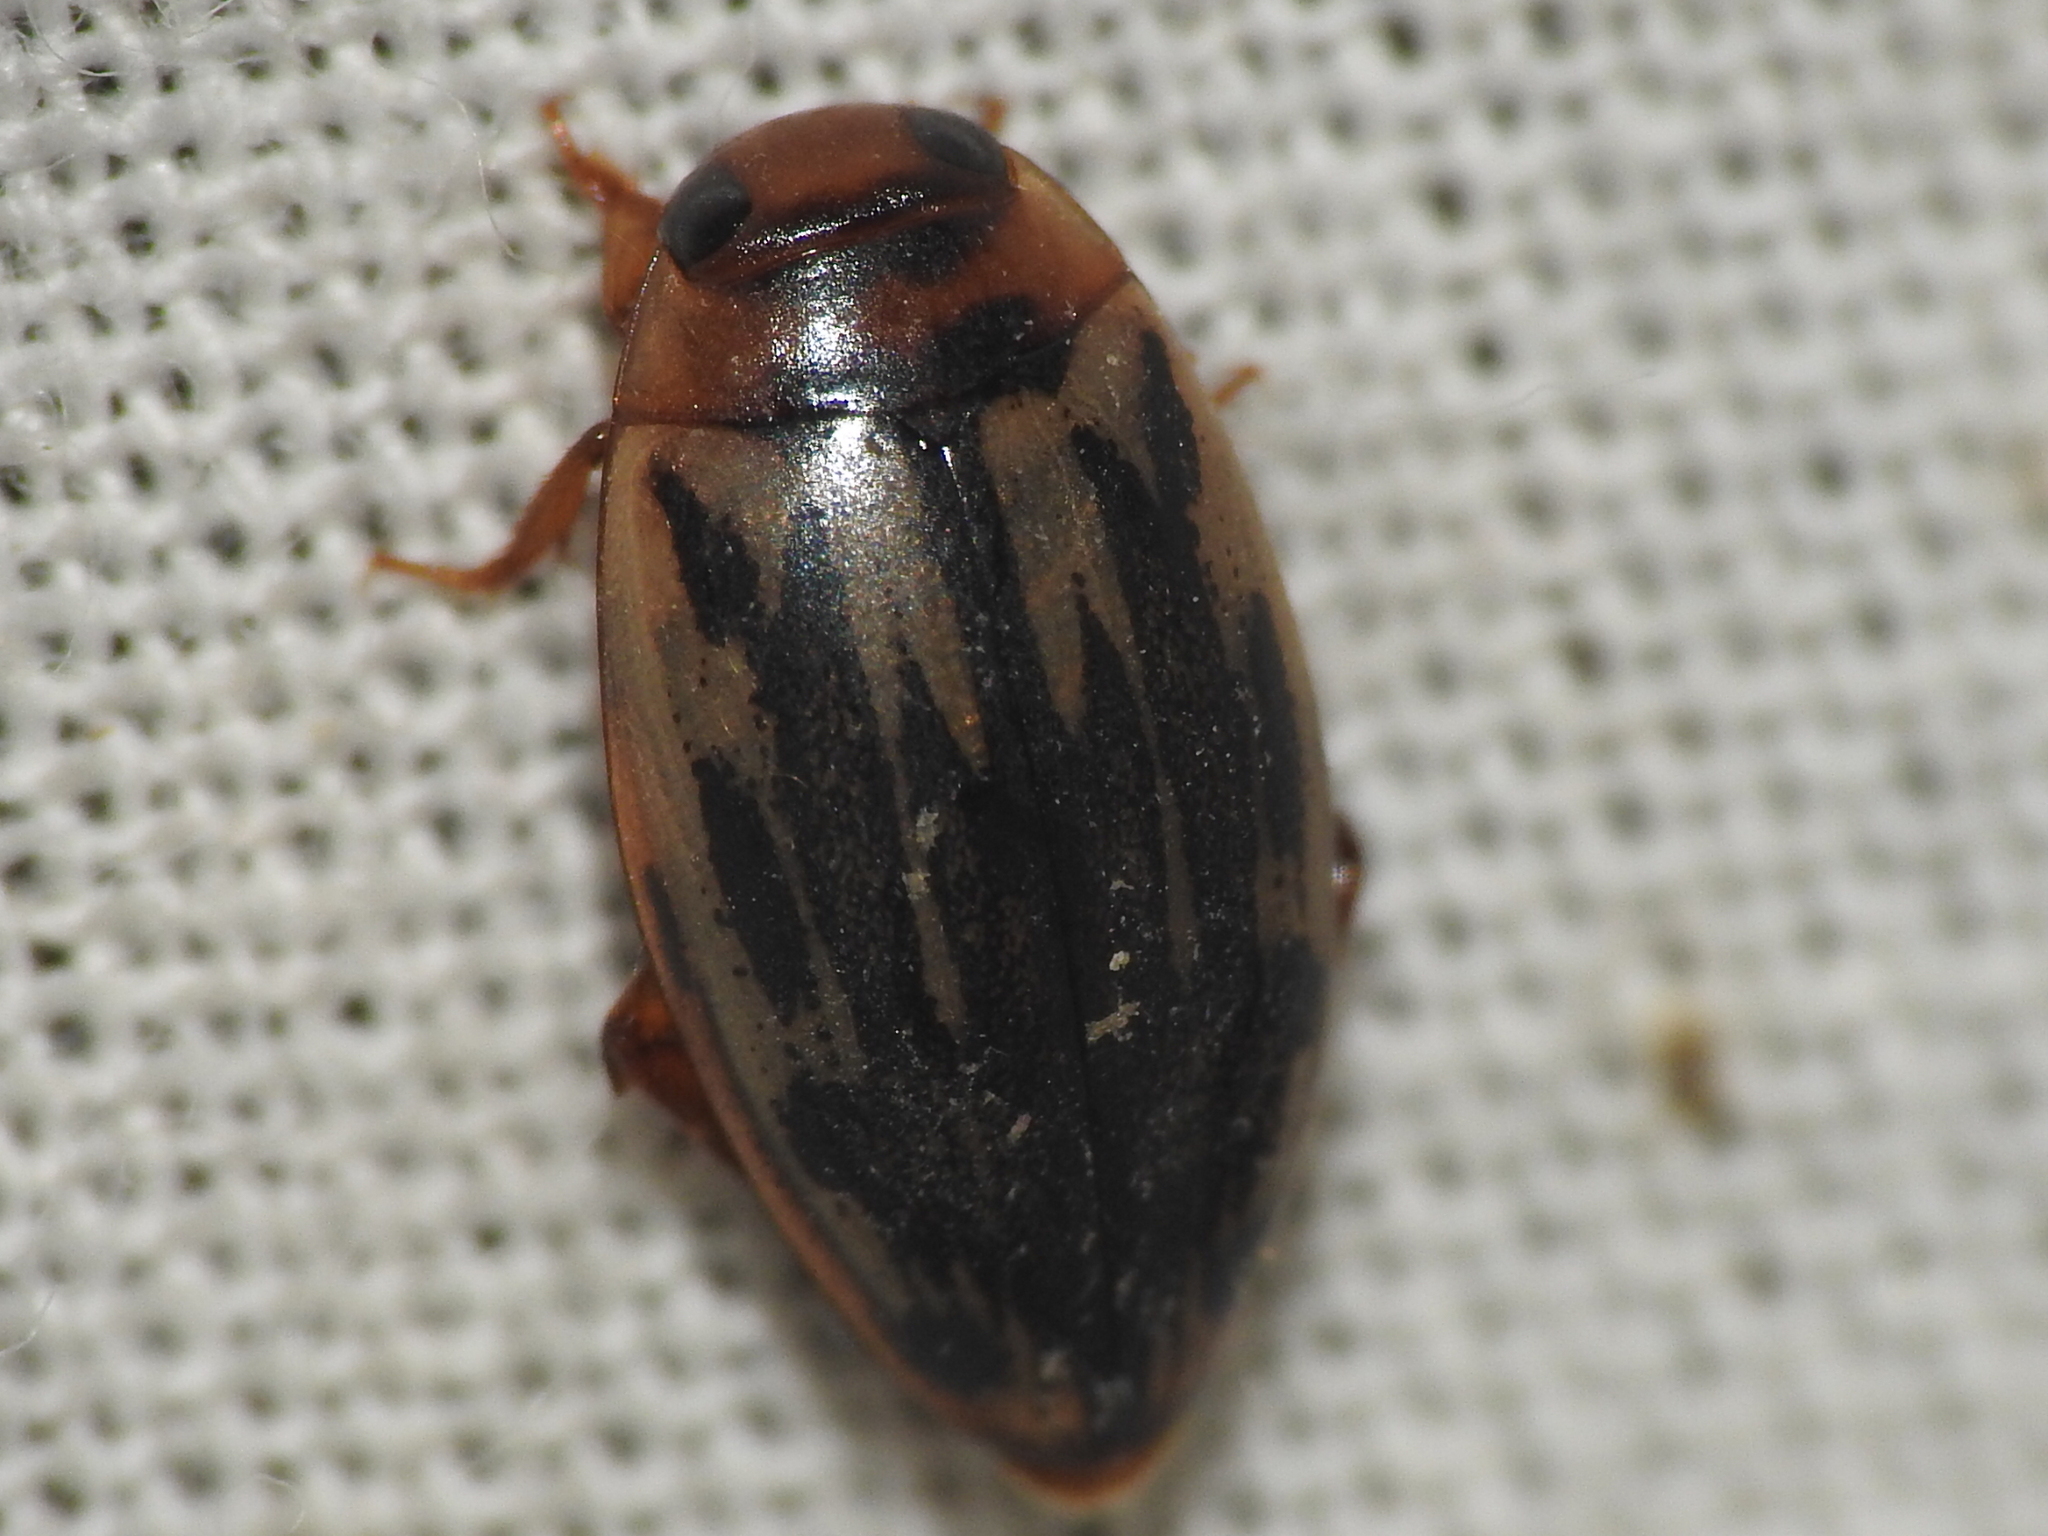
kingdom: Animalia
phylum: Arthropoda
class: Insecta
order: Coleoptera
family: Dytiscidae
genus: Coptotomus
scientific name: Coptotomus
